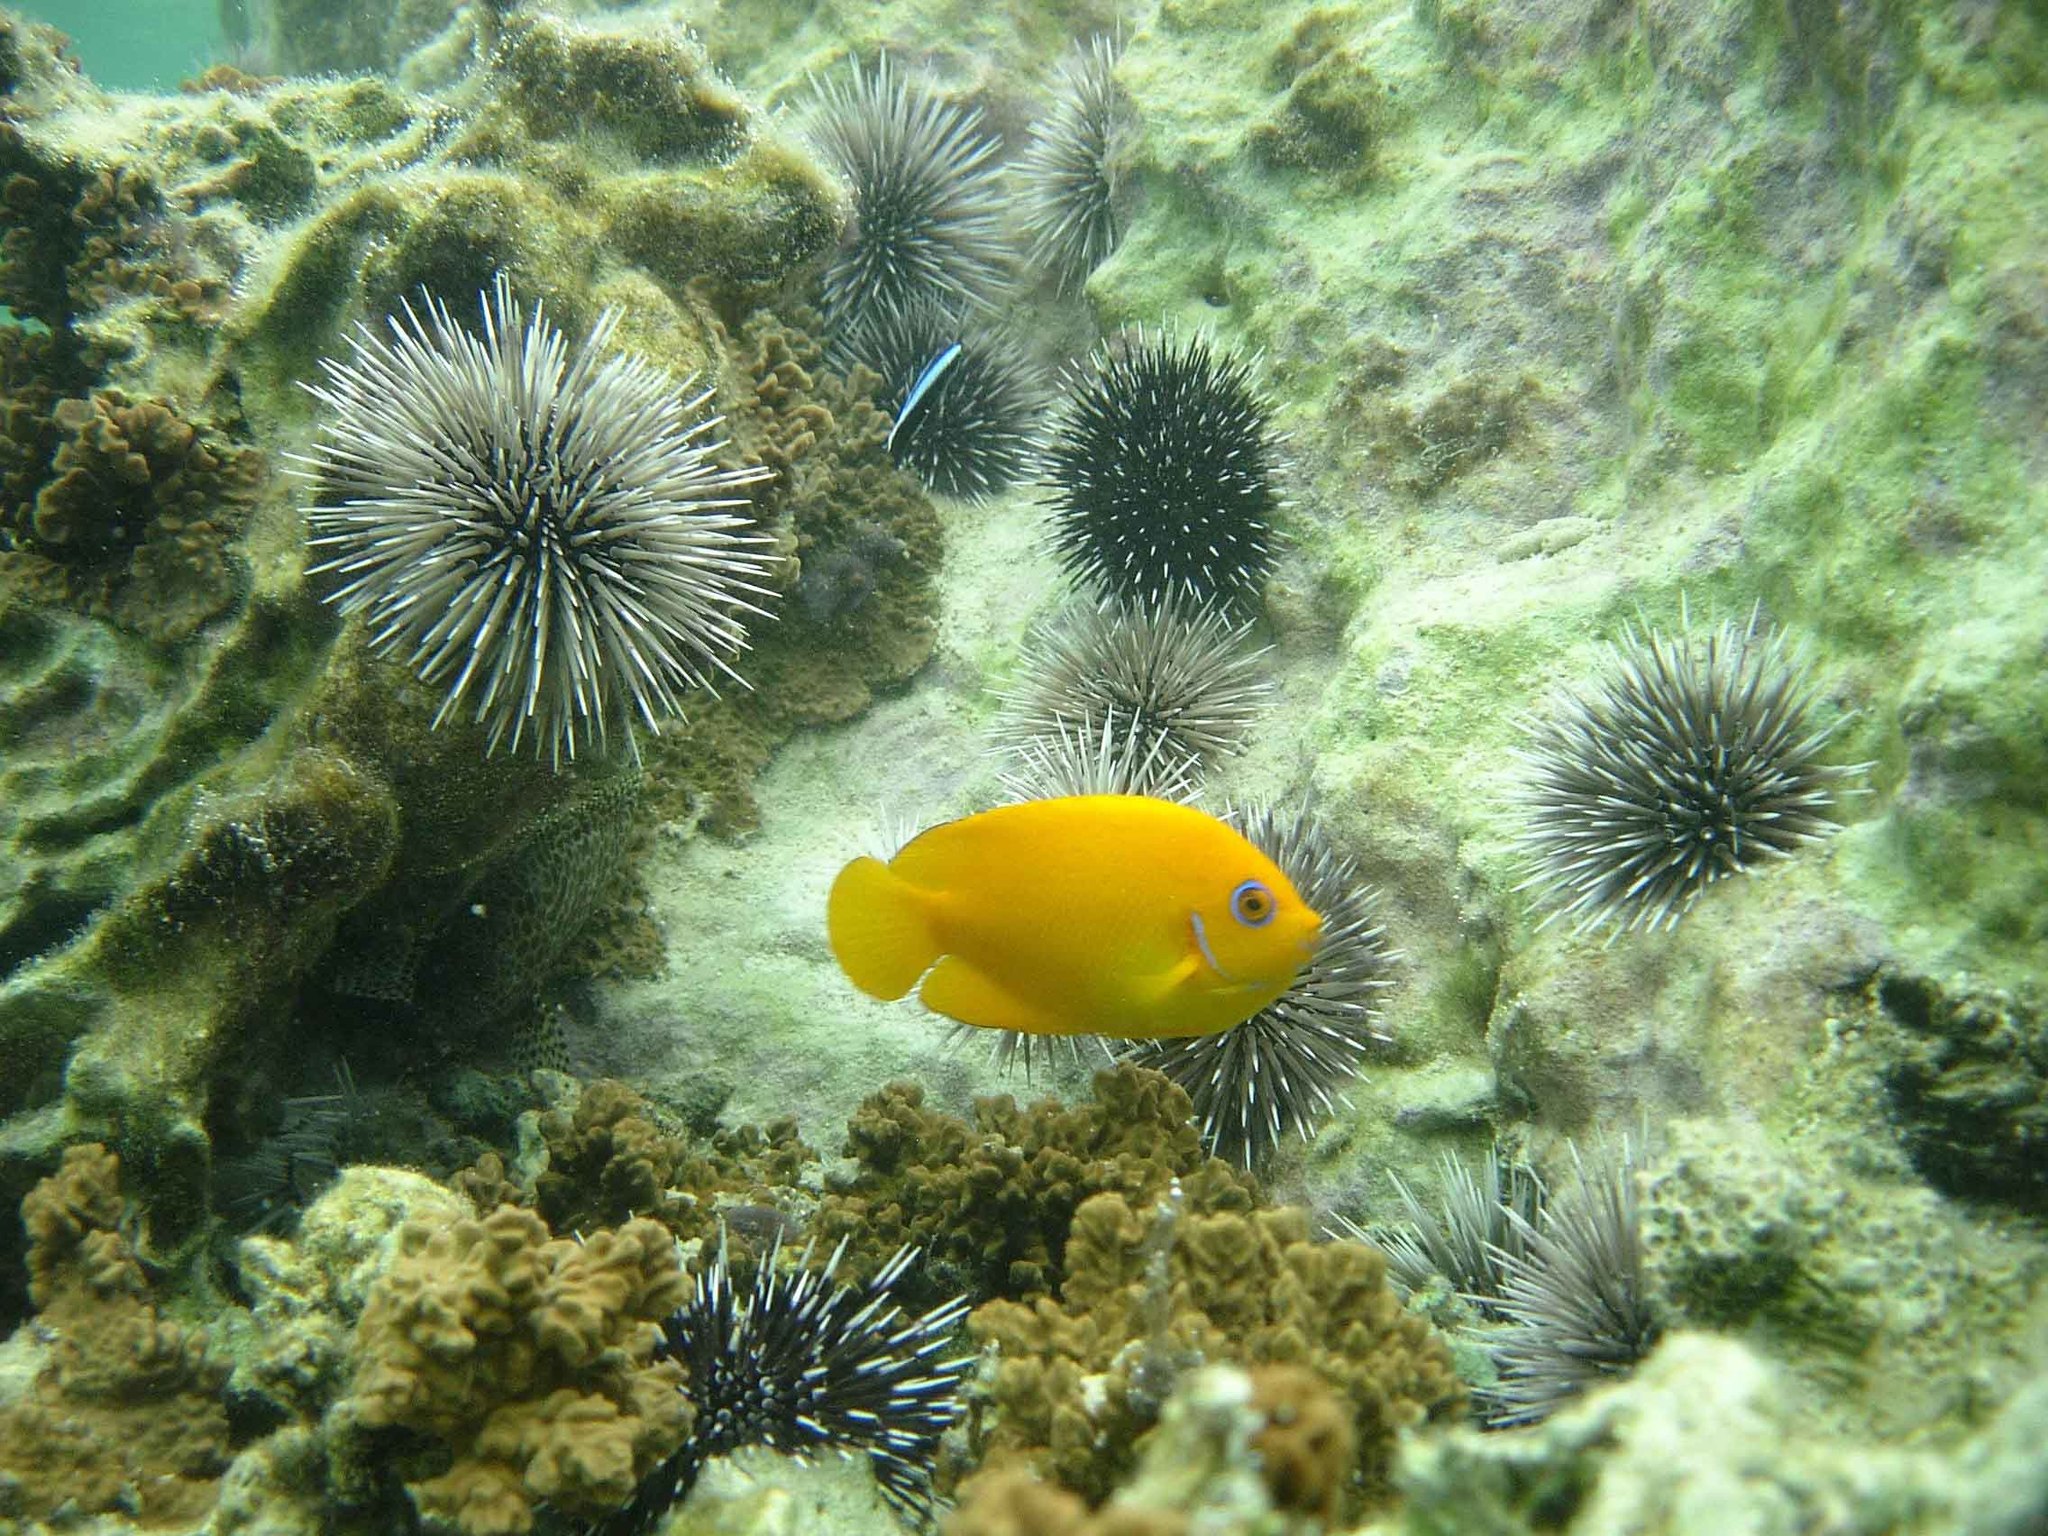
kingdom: Animalia
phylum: Chordata
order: Perciformes
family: Pomacanthidae
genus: Centropyge
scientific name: Centropyge flavissima
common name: Lemonpeel angelfish
